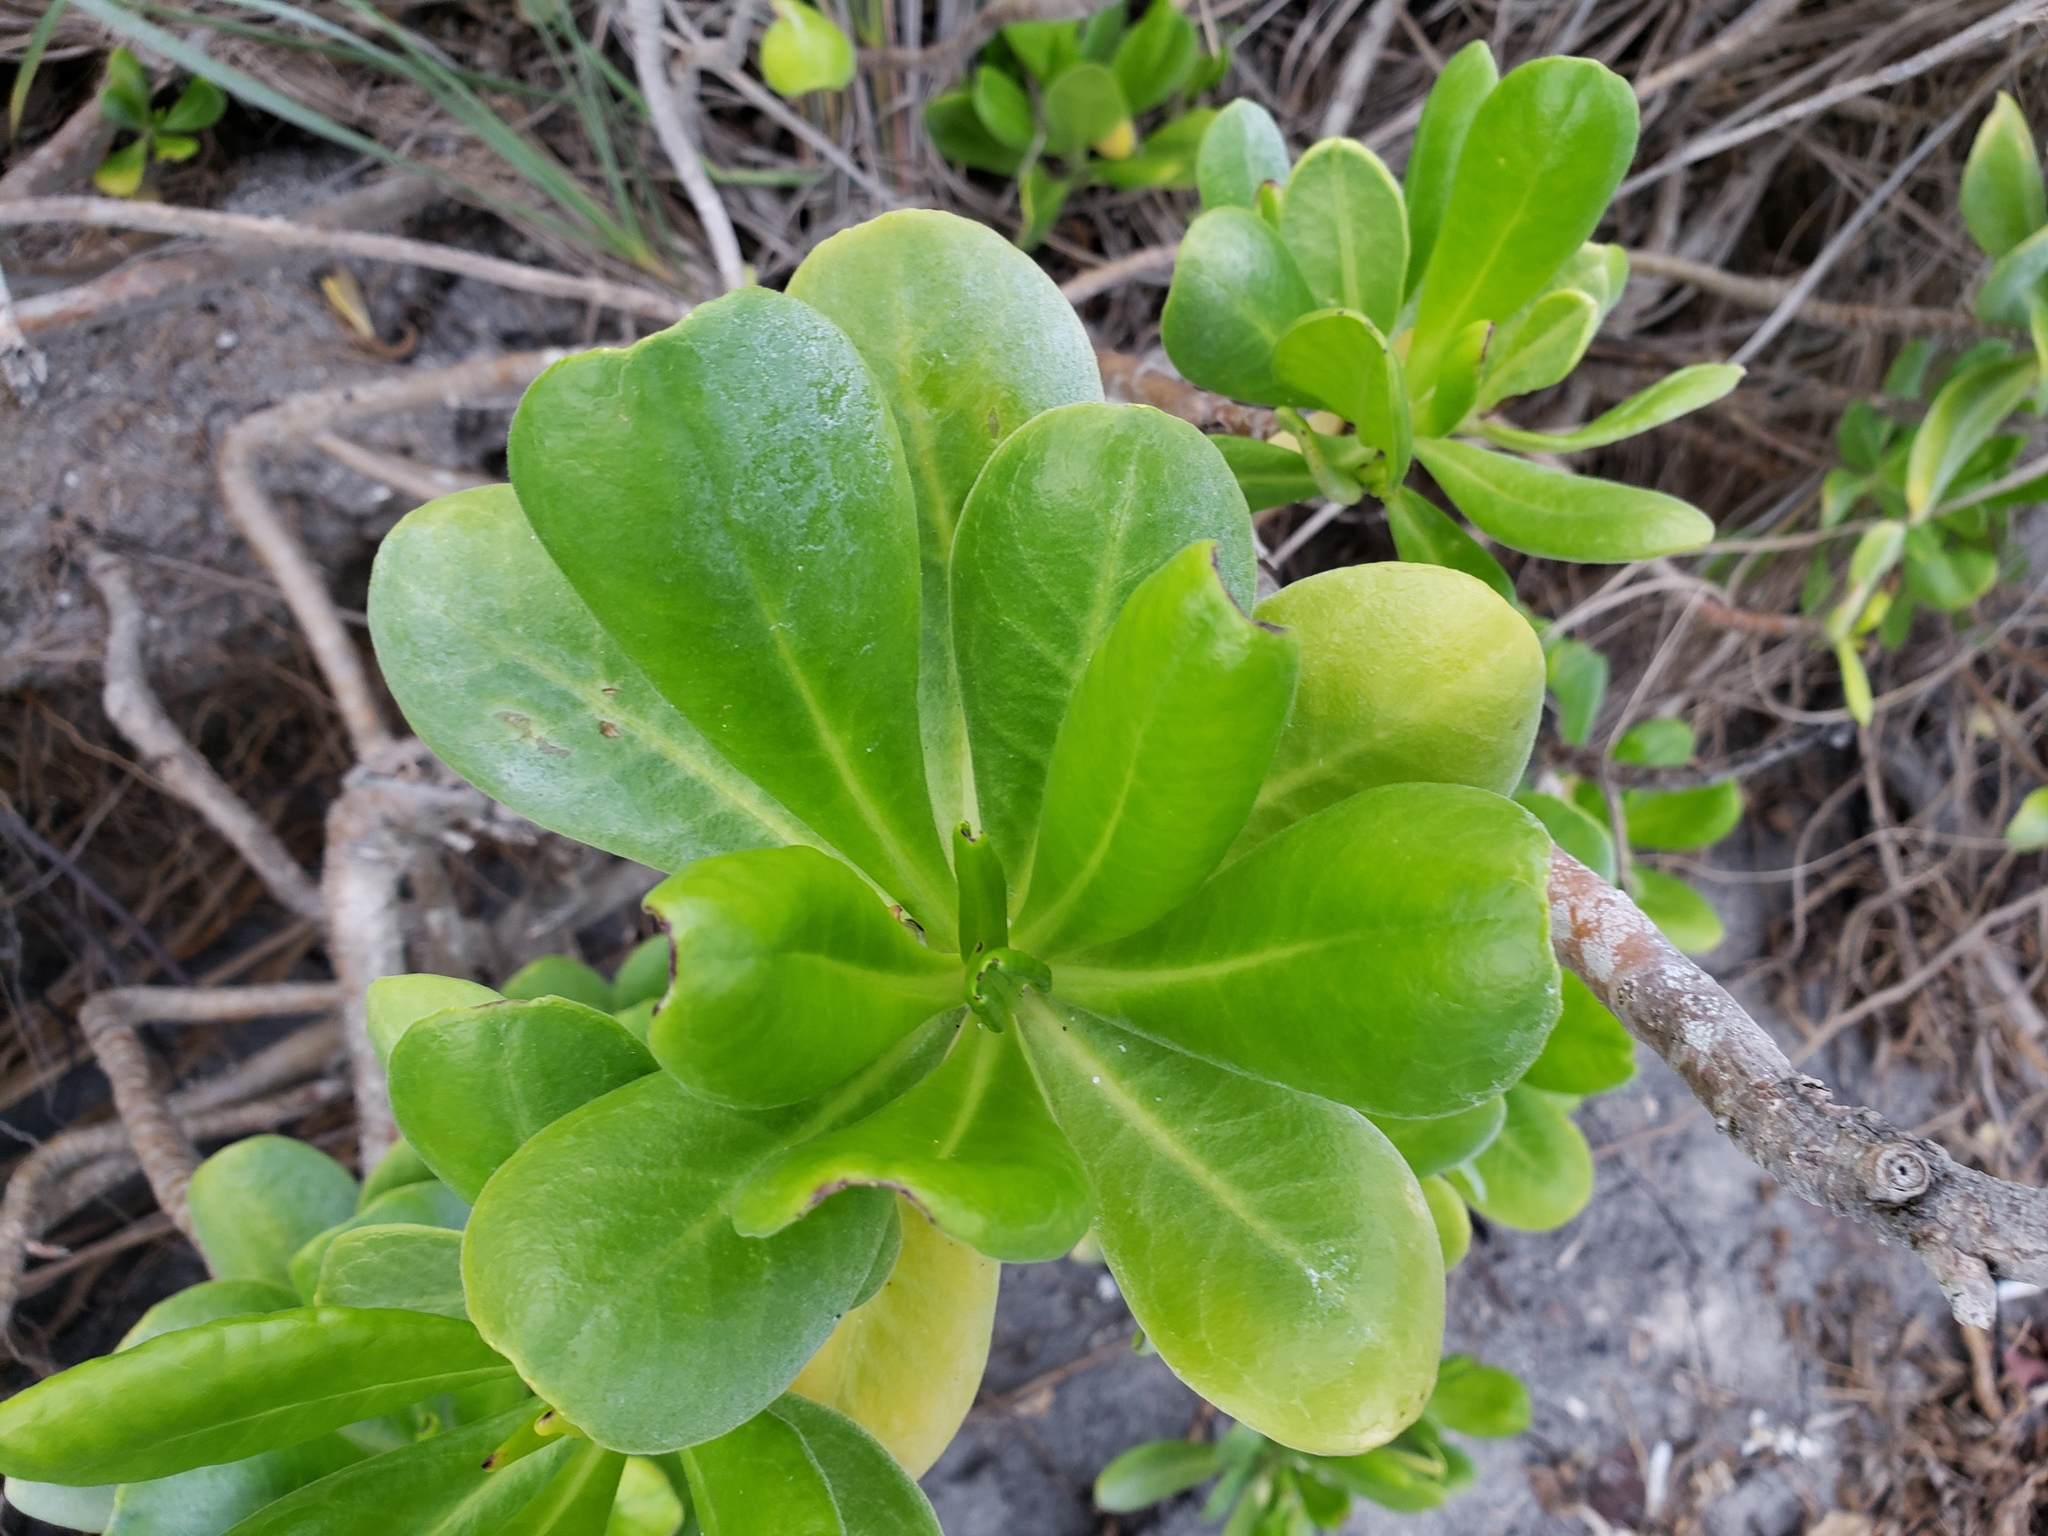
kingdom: Plantae
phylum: Tracheophyta
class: Magnoliopsida
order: Asterales
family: Goodeniaceae
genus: Scaevola
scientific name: Scaevola taccada
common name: Sea lettucetree
